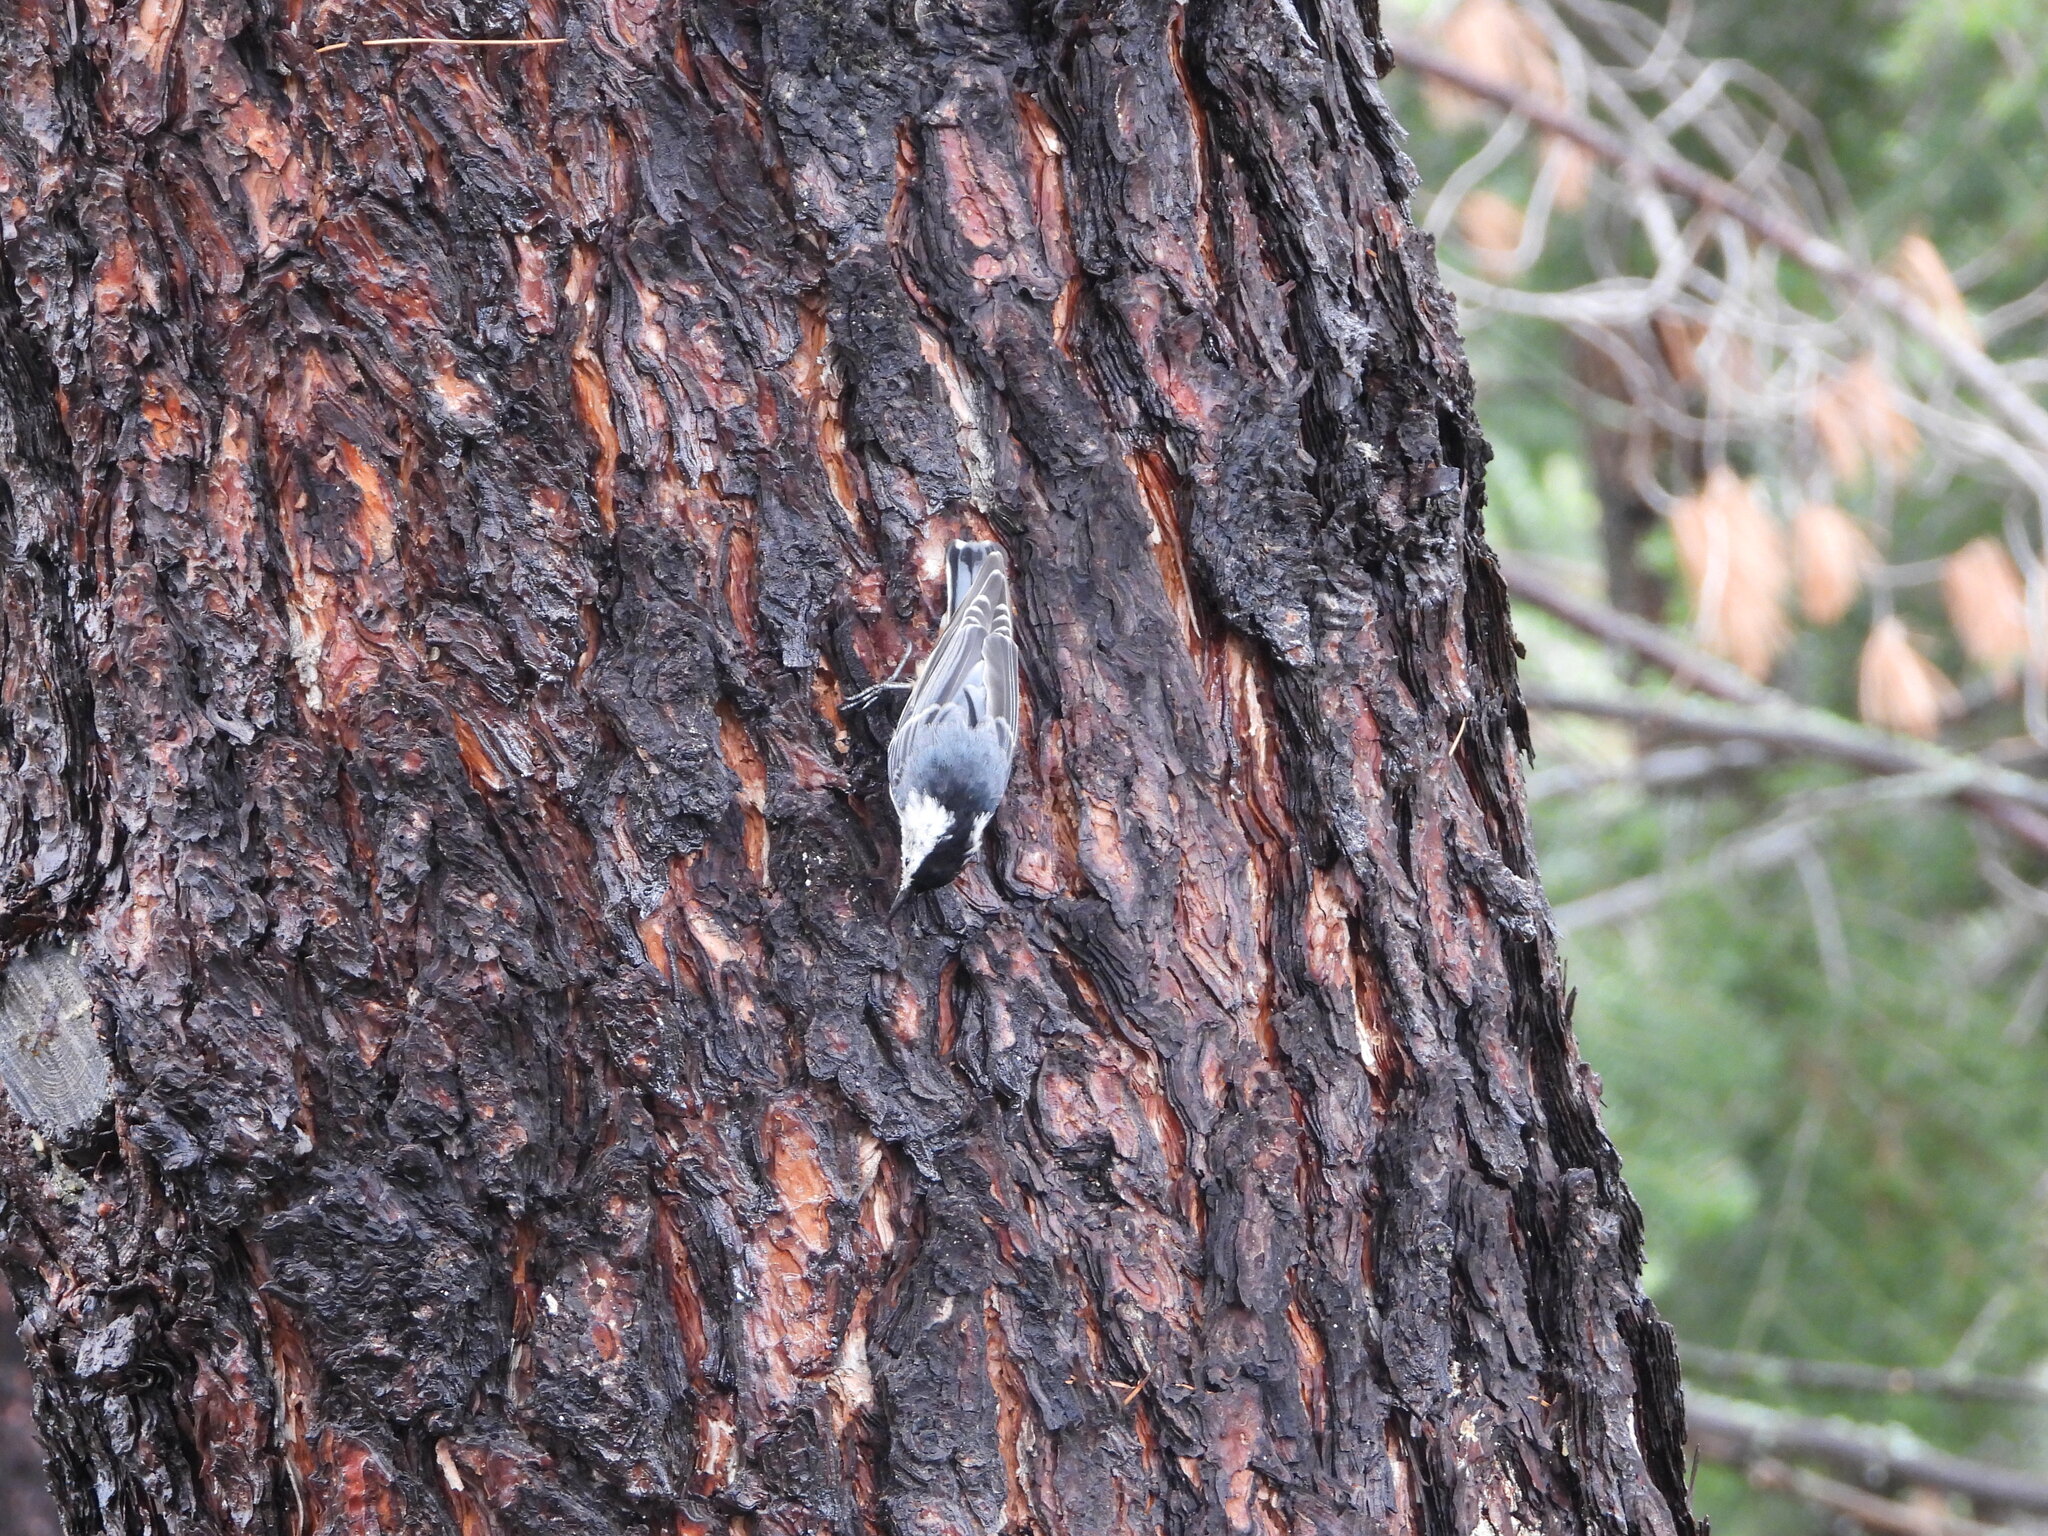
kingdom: Animalia
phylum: Chordata
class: Aves
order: Passeriformes
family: Sittidae
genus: Sitta
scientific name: Sitta carolinensis
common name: White-breasted nuthatch
